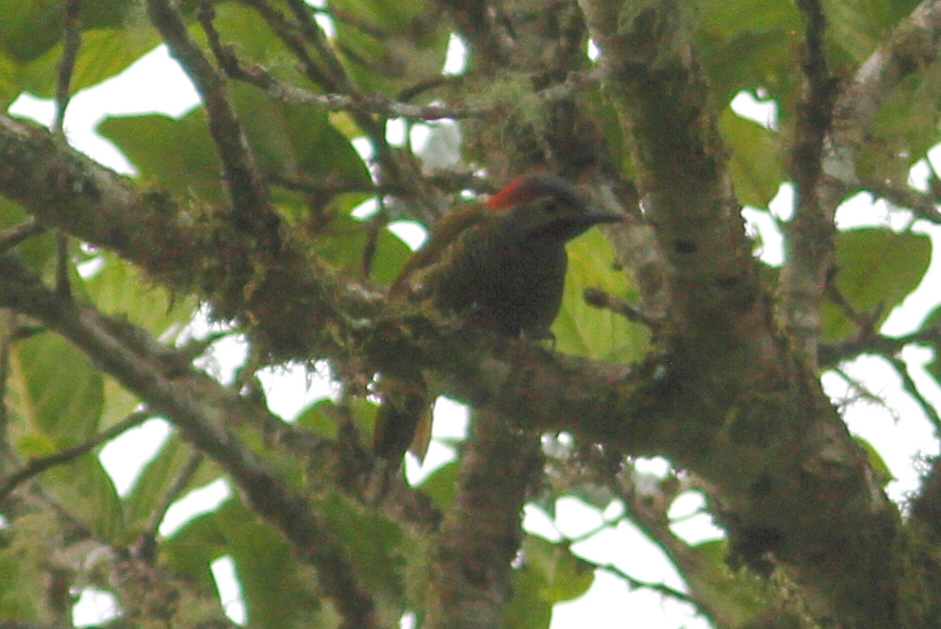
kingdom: Animalia
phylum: Chordata
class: Aves
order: Piciformes
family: Picidae
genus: Colaptes
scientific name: Colaptes rubiginosus
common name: Golden-olive woodpecker
